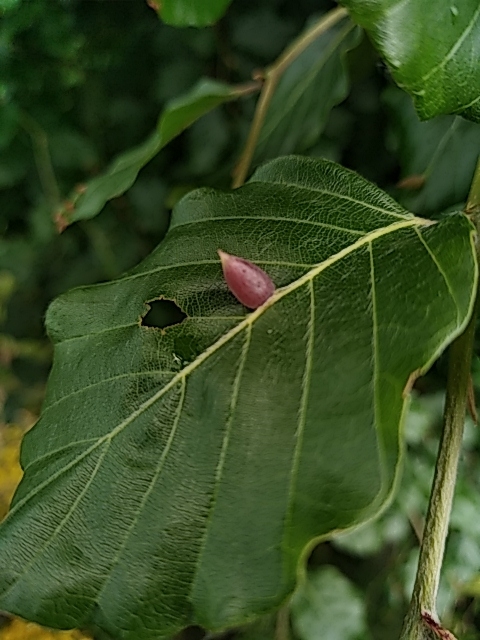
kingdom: Animalia
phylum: Arthropoda
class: Insecta
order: Diptera
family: Cecidomyiidae
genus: Mikiola
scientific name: Mikiola fagi
